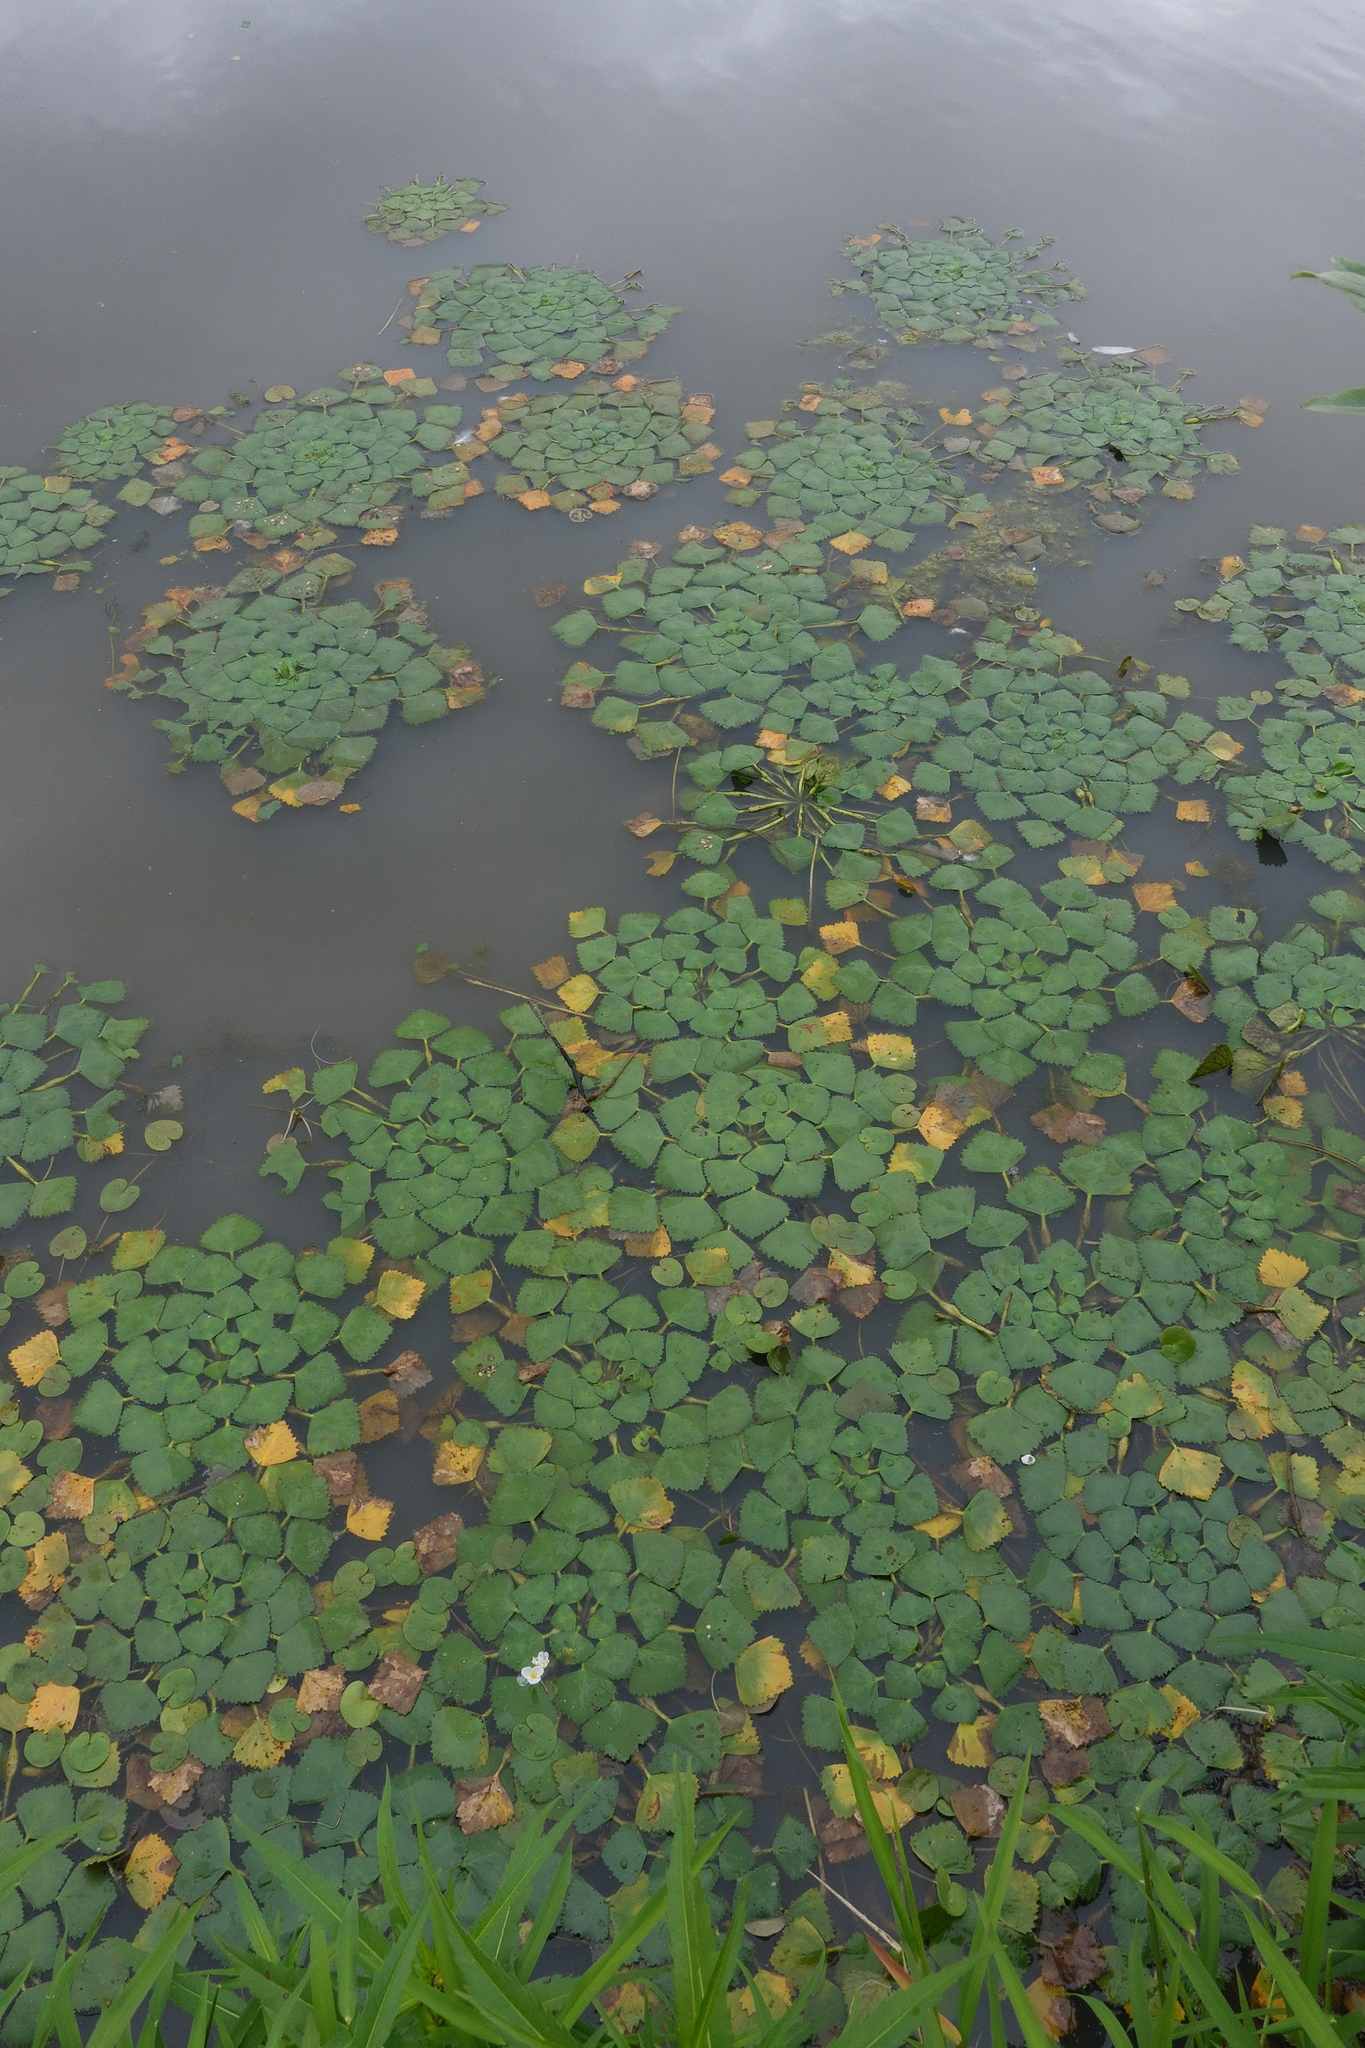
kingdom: Plantae
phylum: Tracheophyta
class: Magnoliopsida
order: Myrtales
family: Lythraceae
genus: Trapa
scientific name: Trapa natans
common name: Water chestnut
